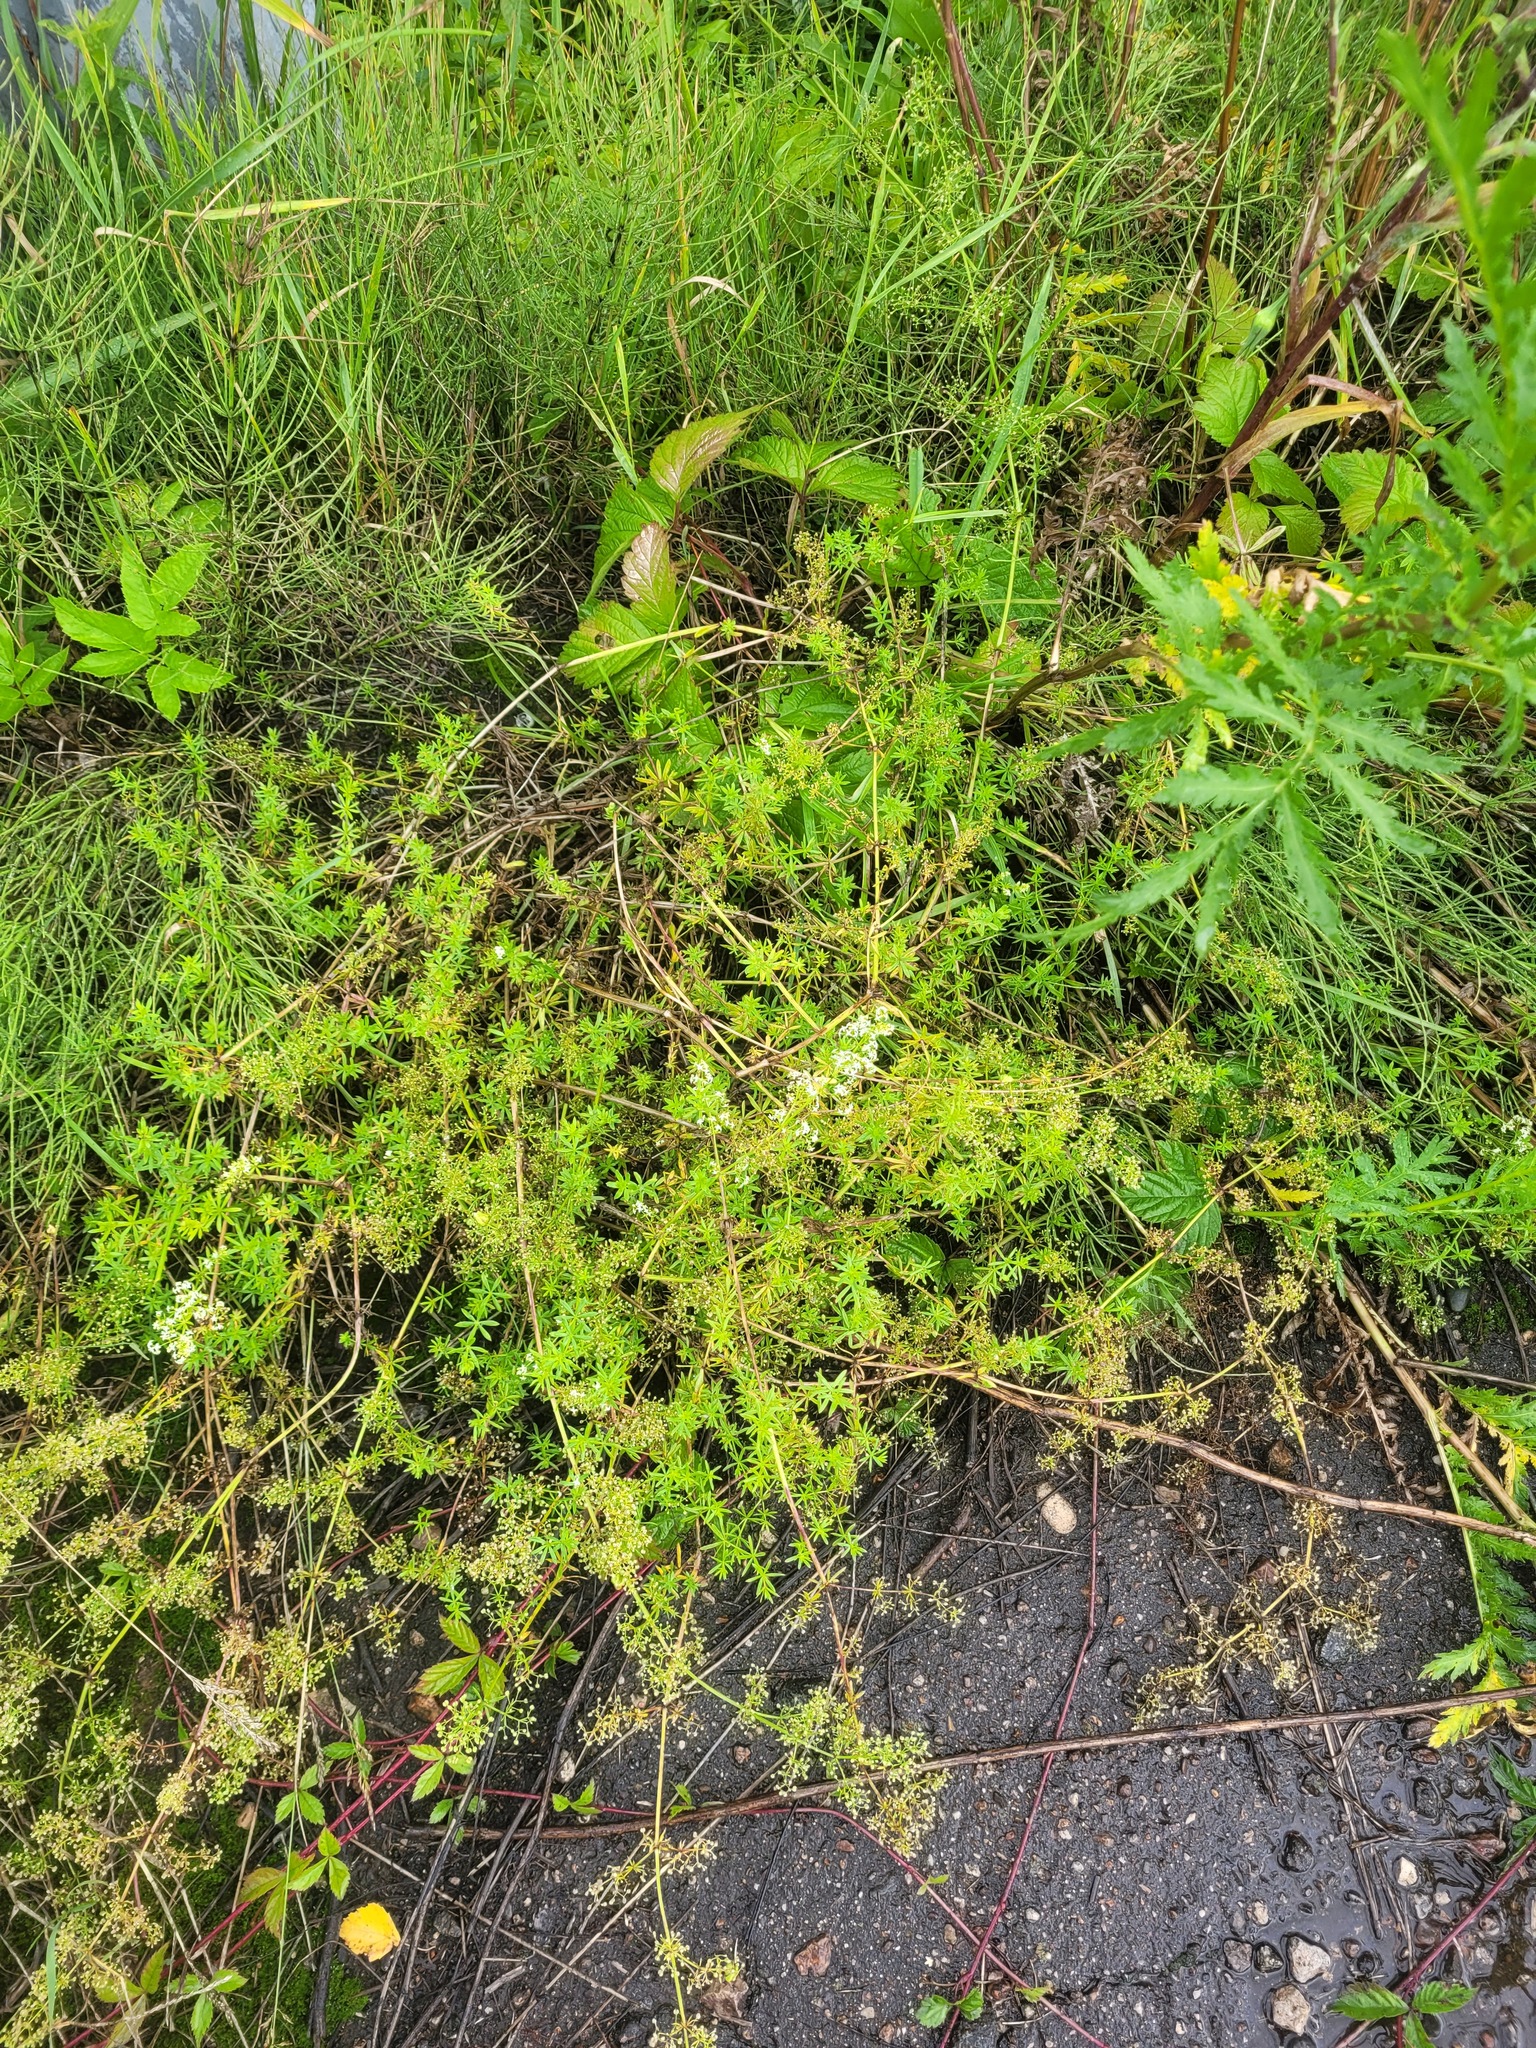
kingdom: Plantae
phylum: Tracheophyta
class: Magnoliopsida
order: Gentianales
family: Rubiaceae
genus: Galium
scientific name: Galium mollugo
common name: Hedge bedstraw
